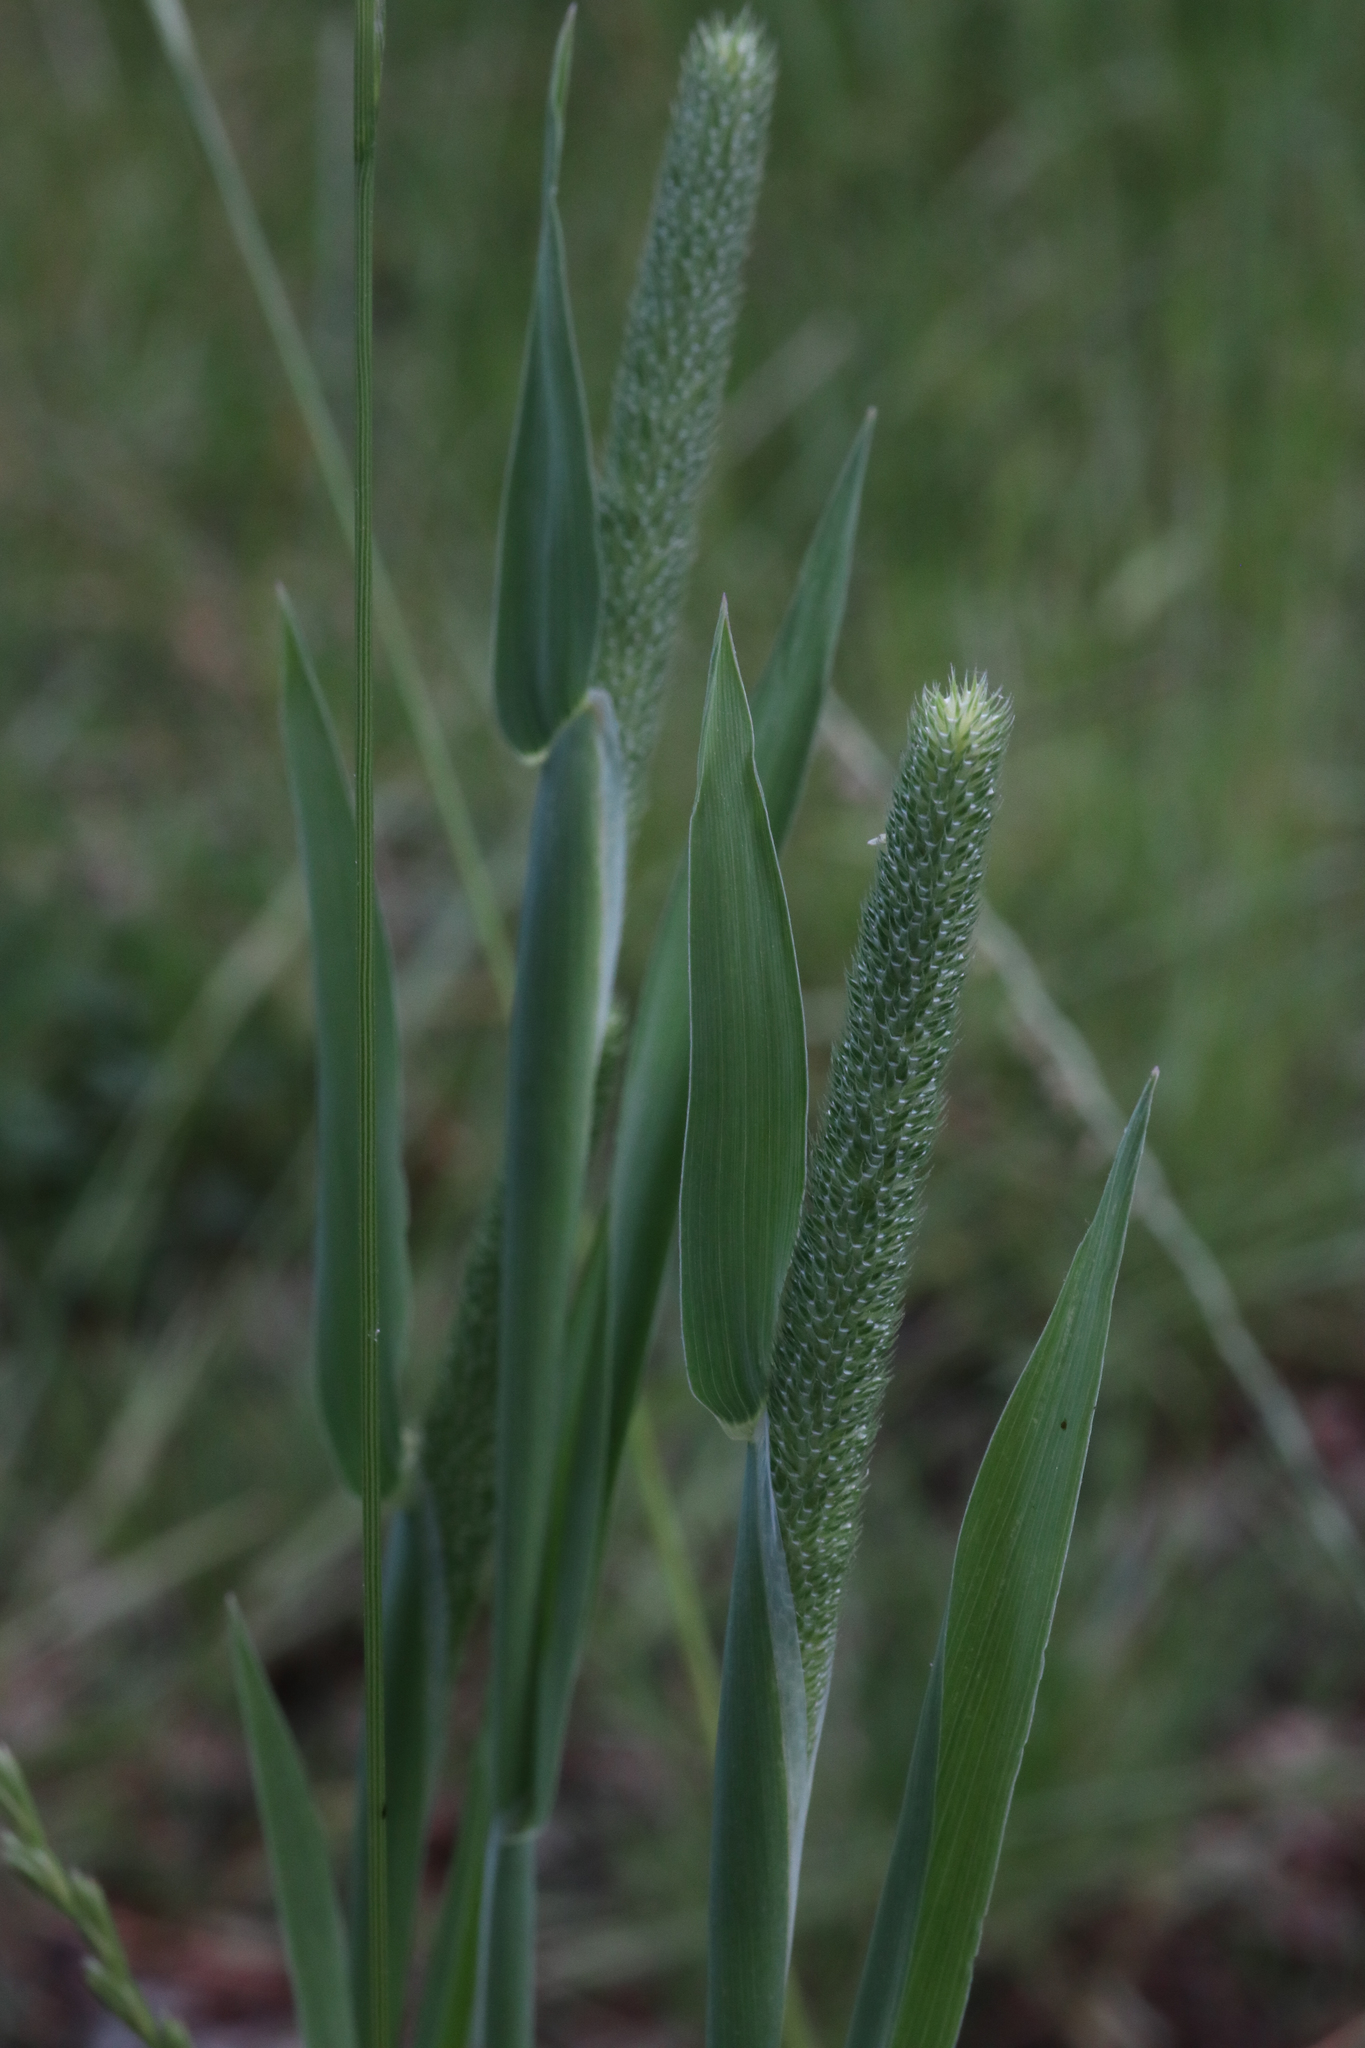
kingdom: Plantae
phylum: Tracheophyta
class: Liliopsida
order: Poales
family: Poaceae
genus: Phleum
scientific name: Phleum pratense
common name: Timothy grass
